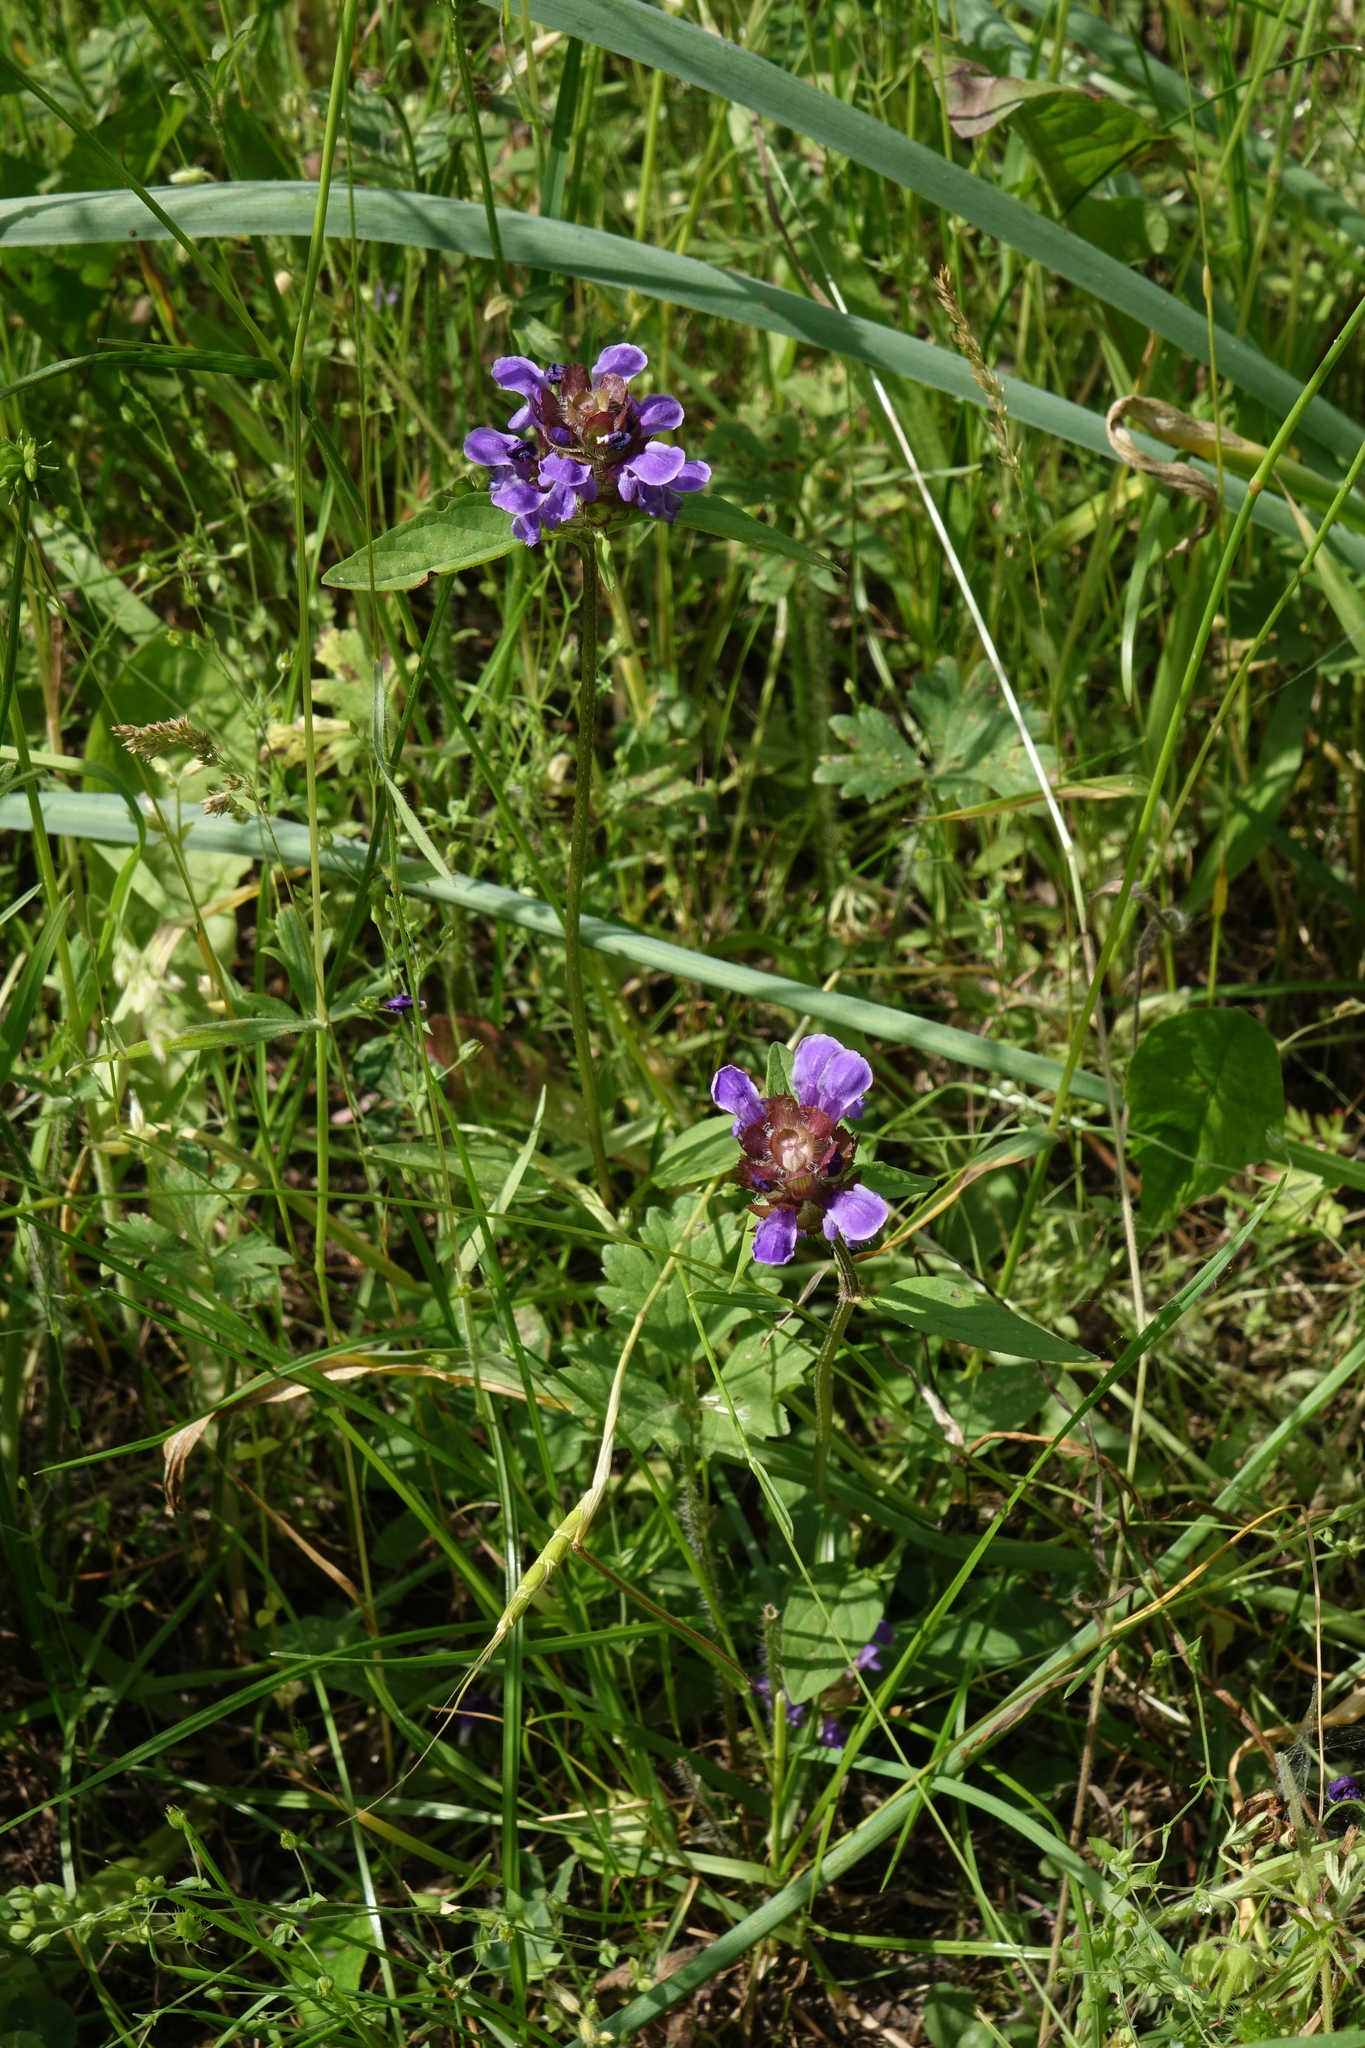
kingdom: Plantae
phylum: Tracheophyta
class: Magnoliopsida
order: Lamiales
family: Lamiaceae
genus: Prunella
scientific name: Prunella vulgaris
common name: Heal-all
